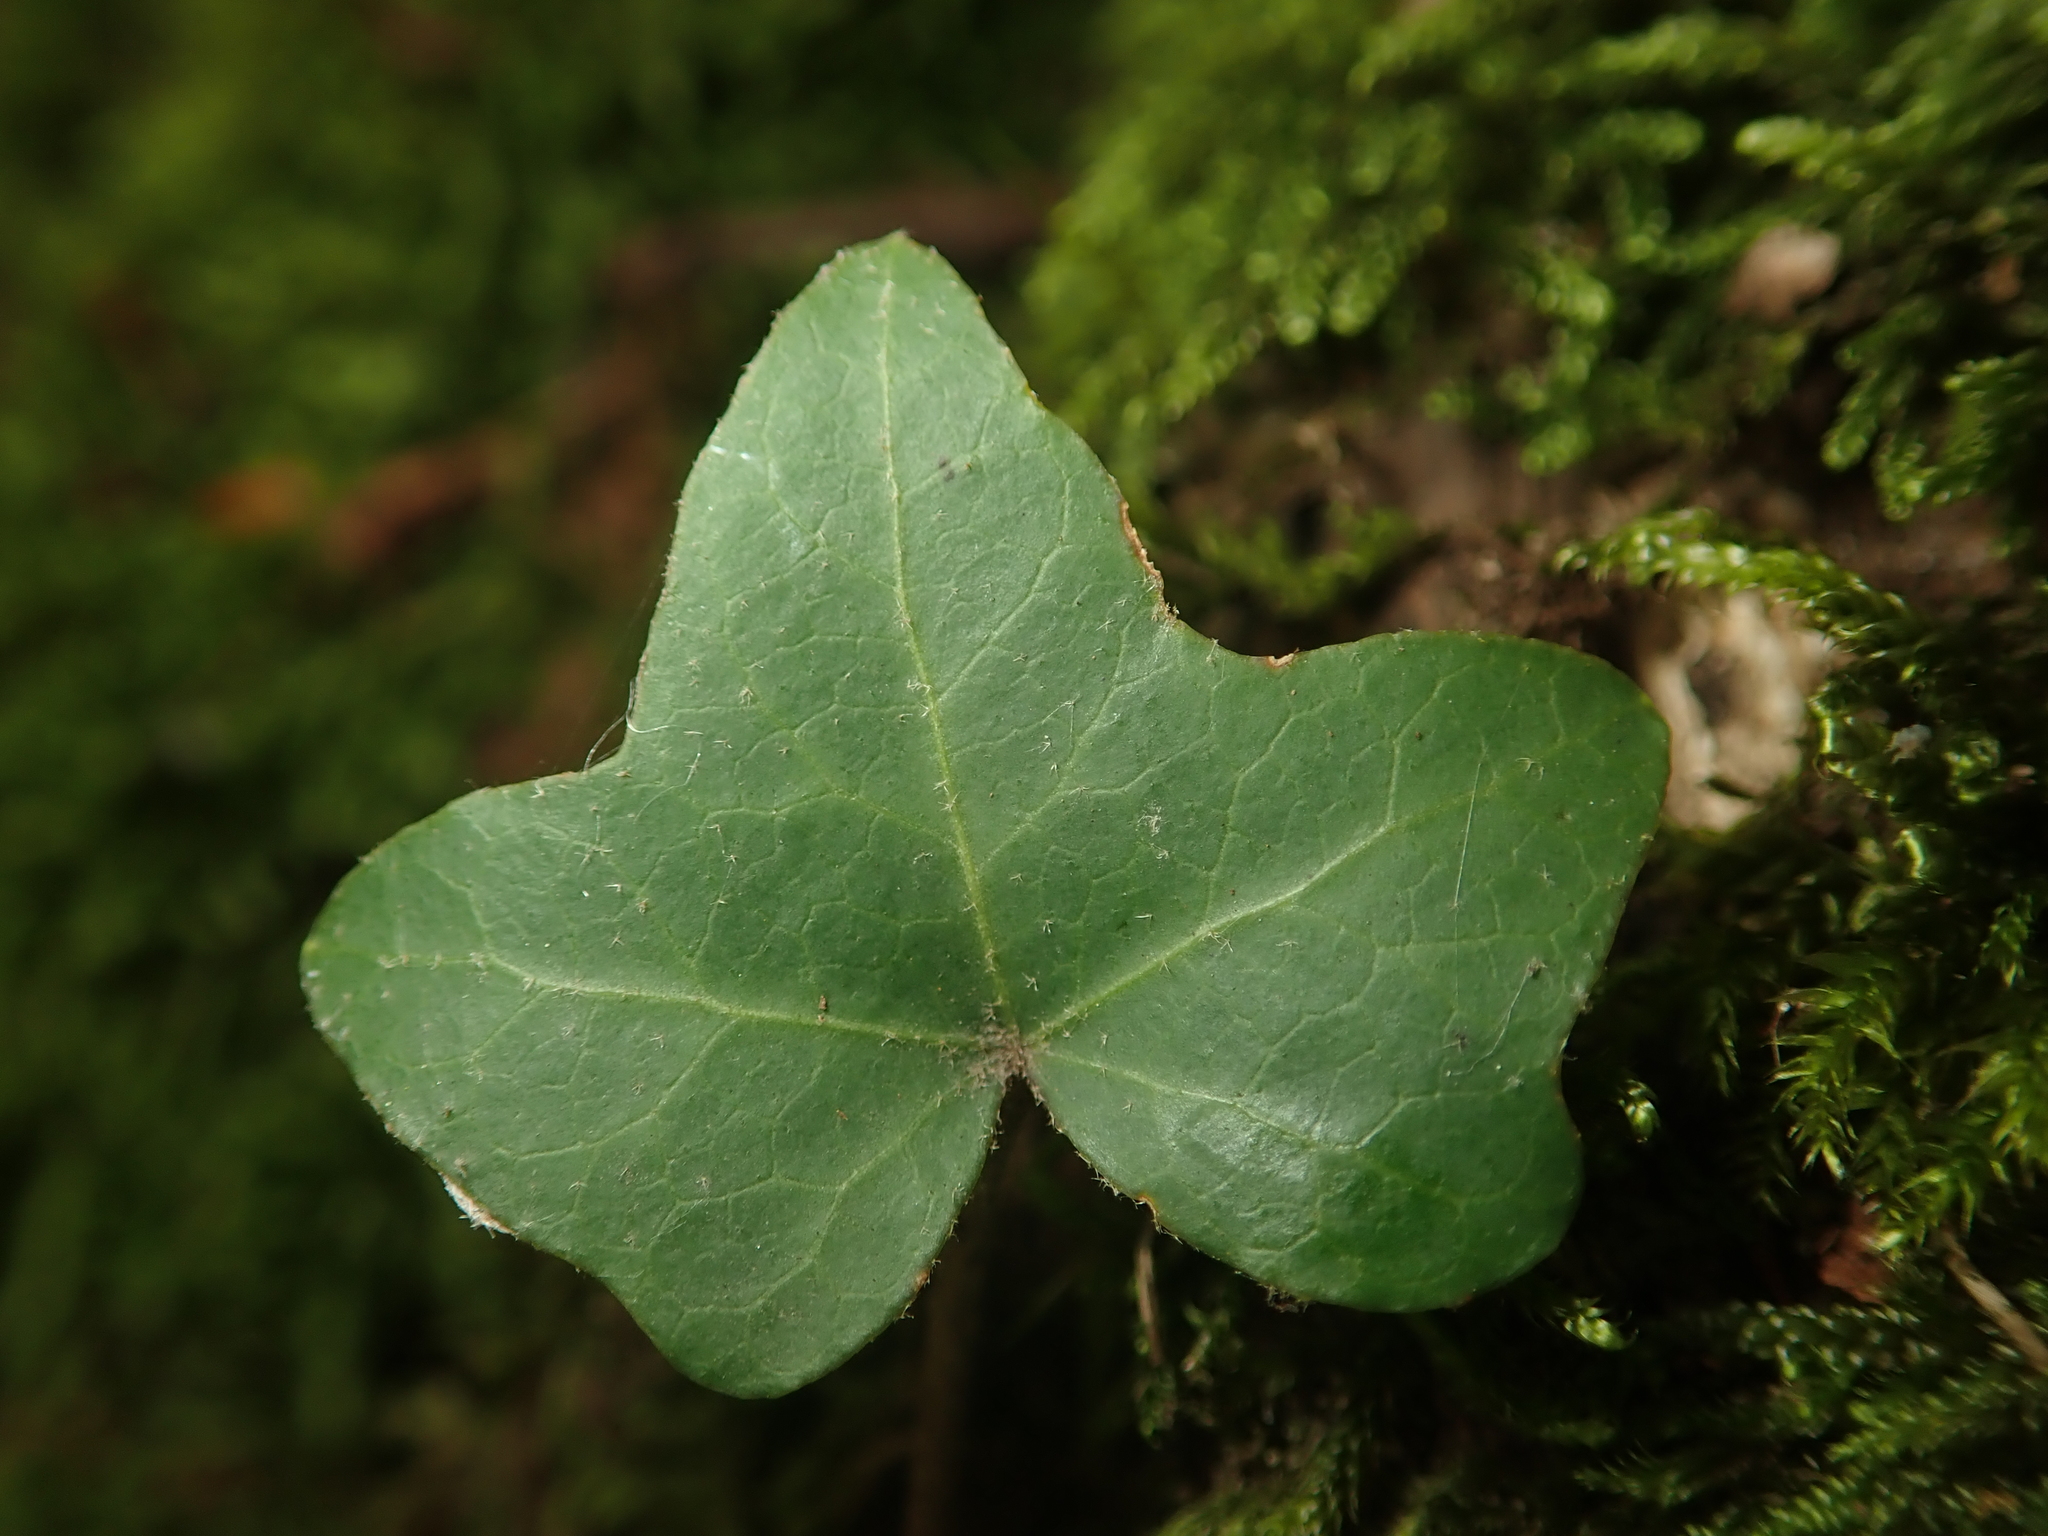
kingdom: Plantae
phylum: Tracheophyta
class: Magnoliopsida
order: Apiales
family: Araliaceae
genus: Hedera
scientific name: Hedera helix
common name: Ivy
